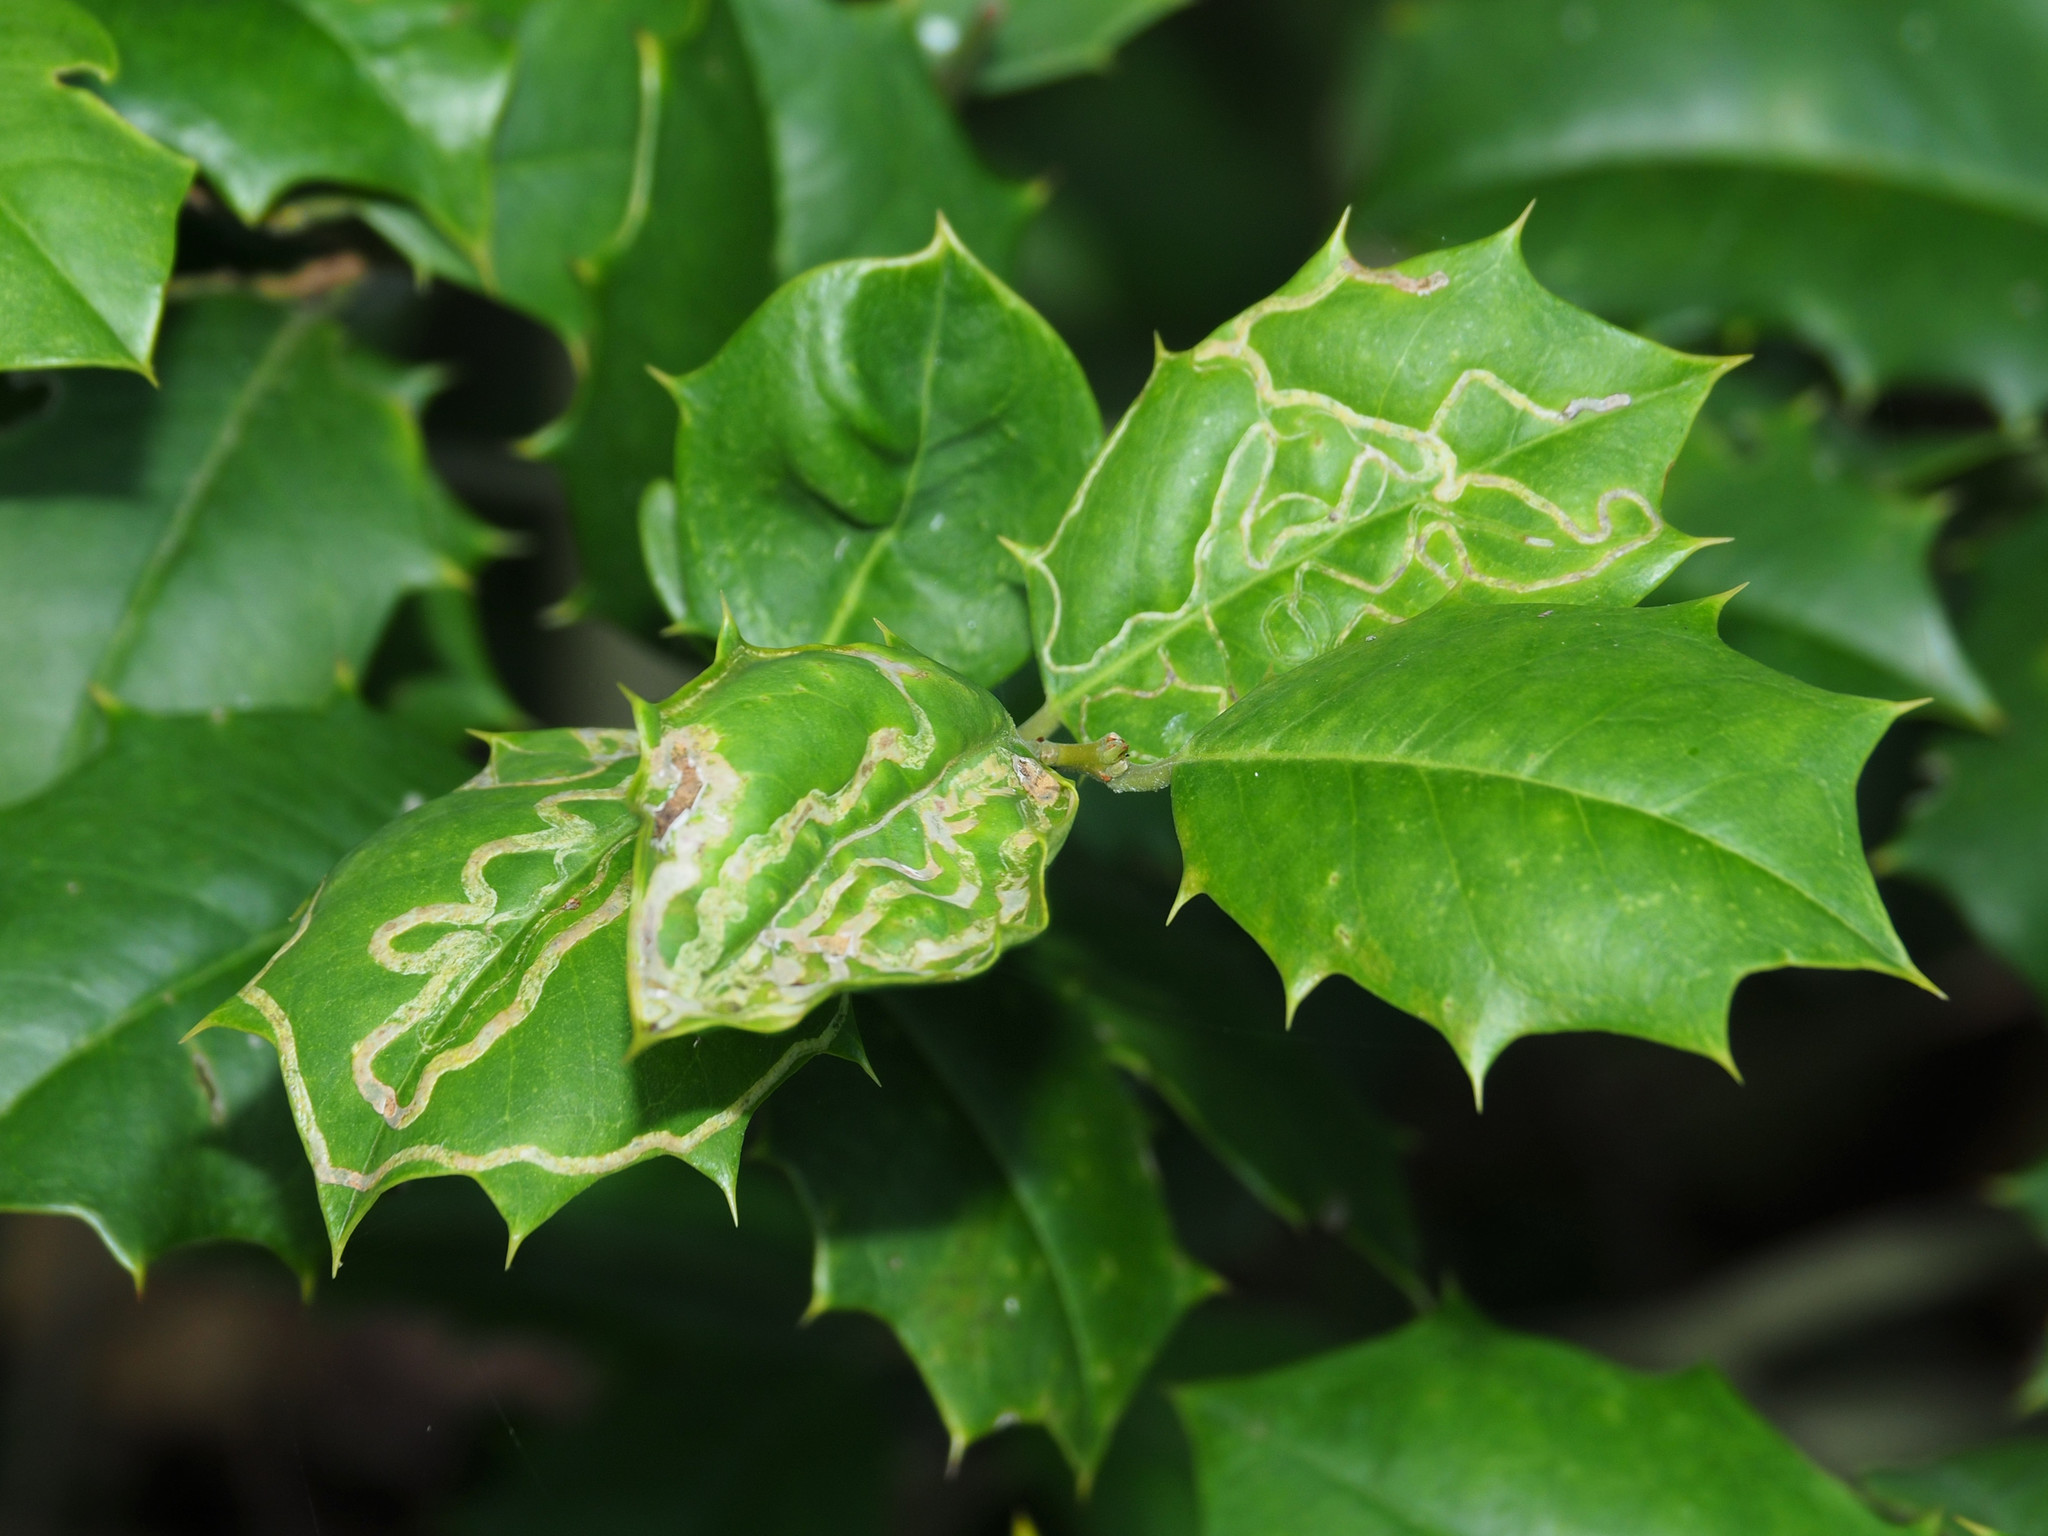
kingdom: Animalia
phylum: Arthropoda
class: Insecta
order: Diptera
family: Agromyzidae
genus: Phytomyza
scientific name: Phytomyza opacae
